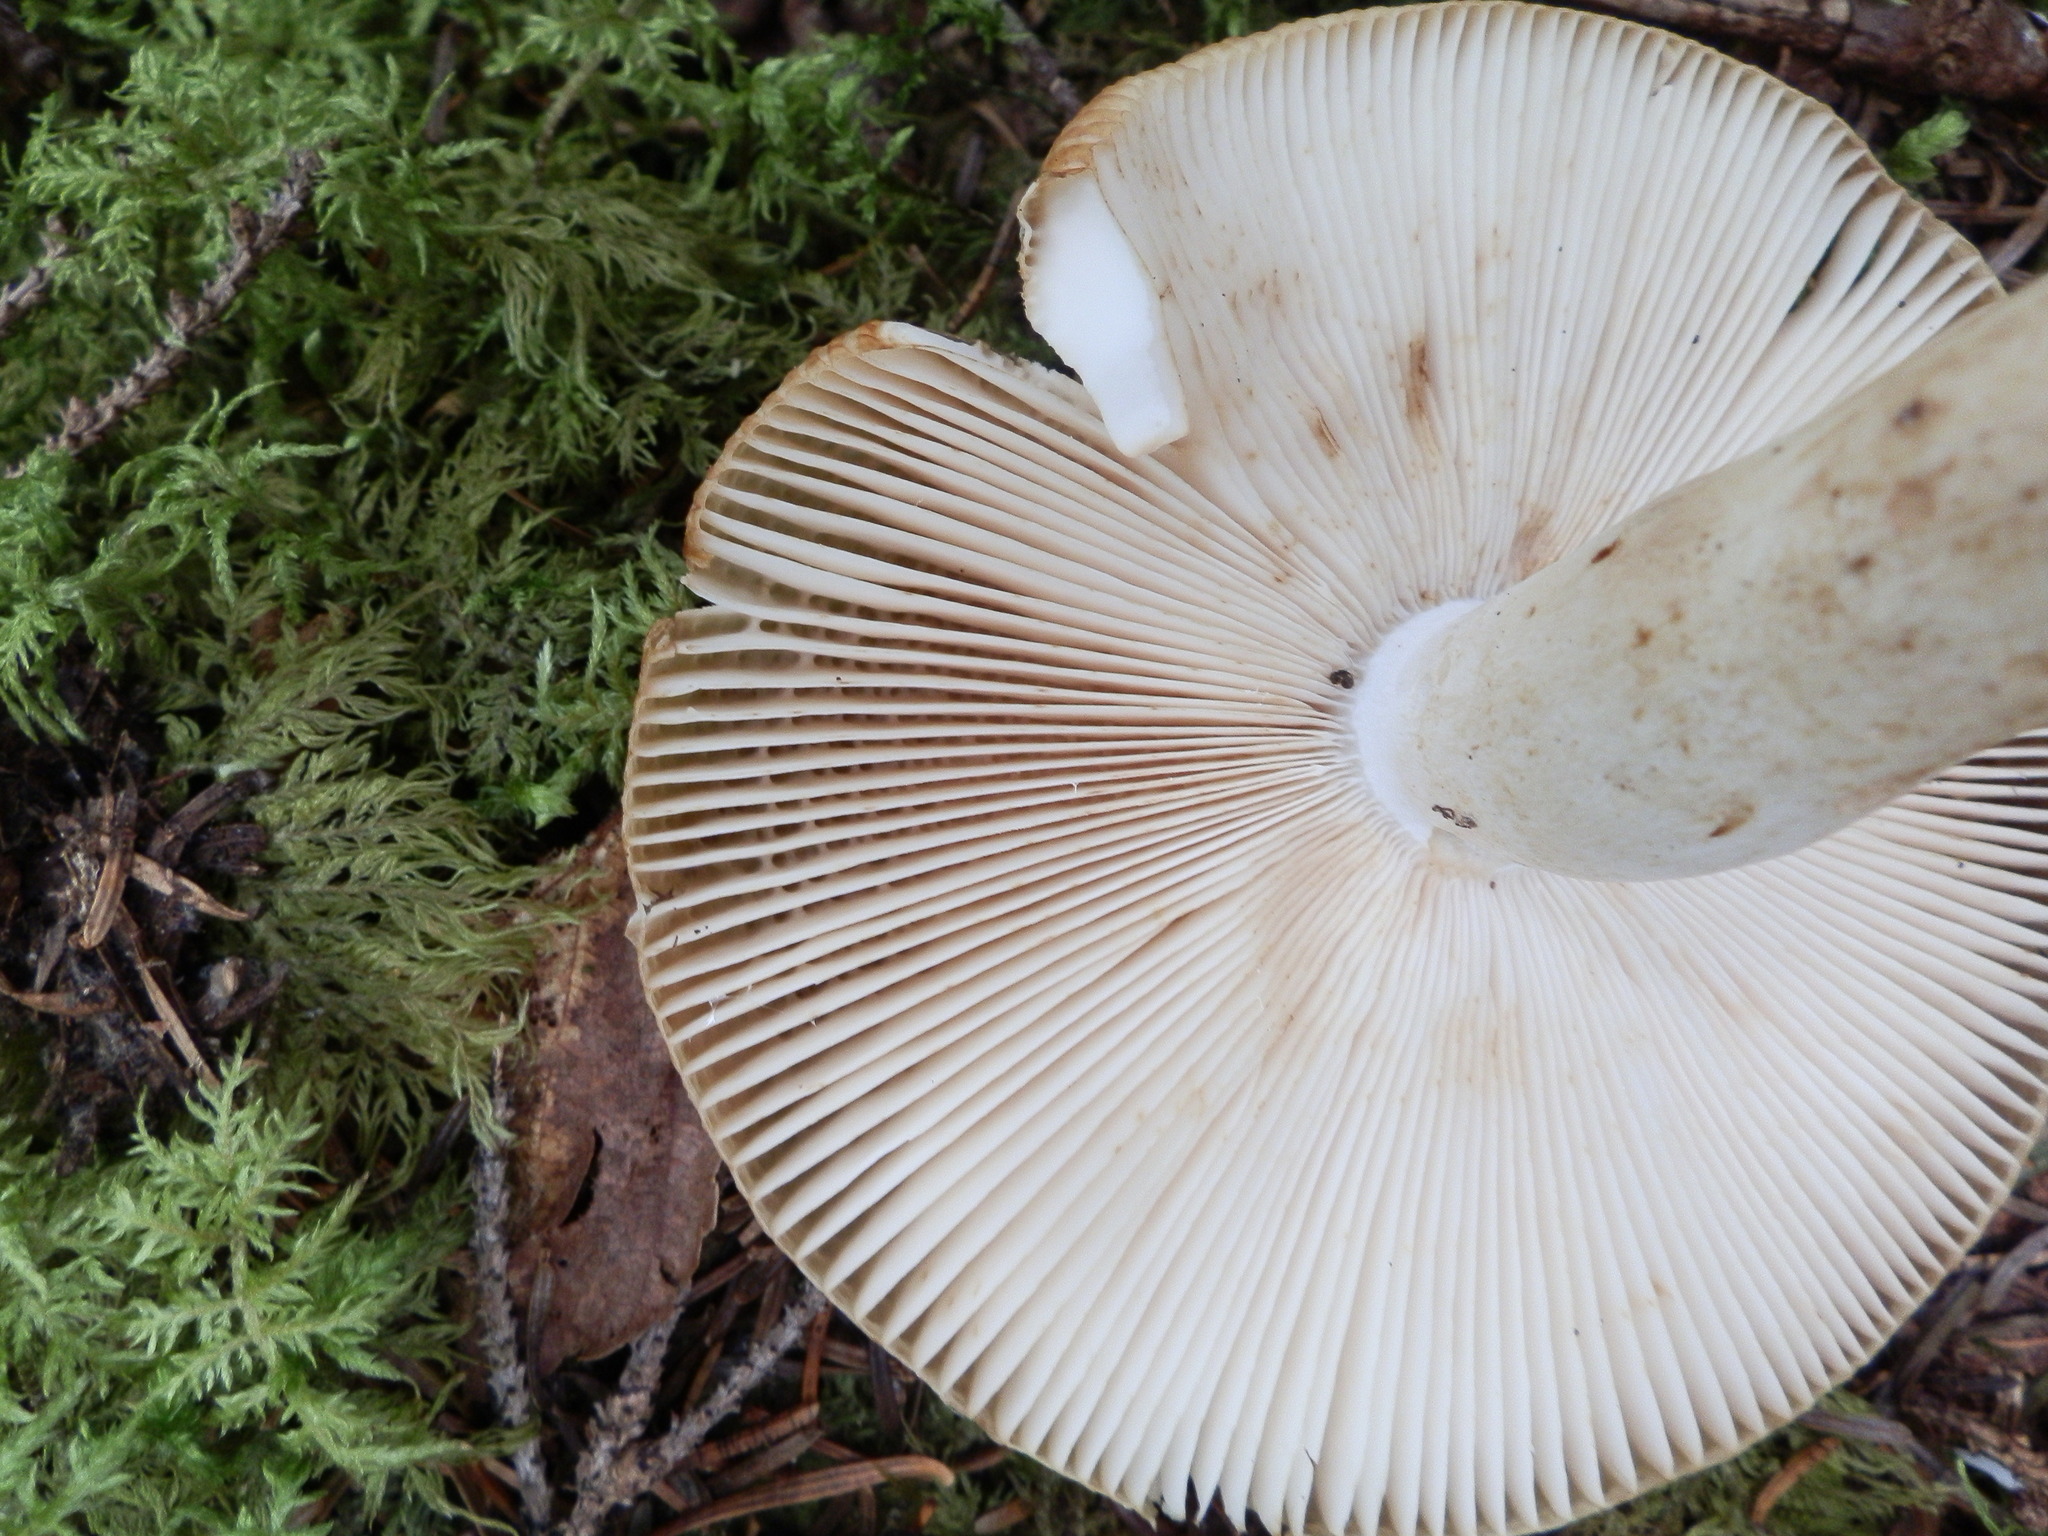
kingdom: Fungi
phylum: Basidiomycota
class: Agaricomycetes
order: Russulales
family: Russulaceae
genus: Russula
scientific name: Russula grata
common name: Bitter almond brittlegill
